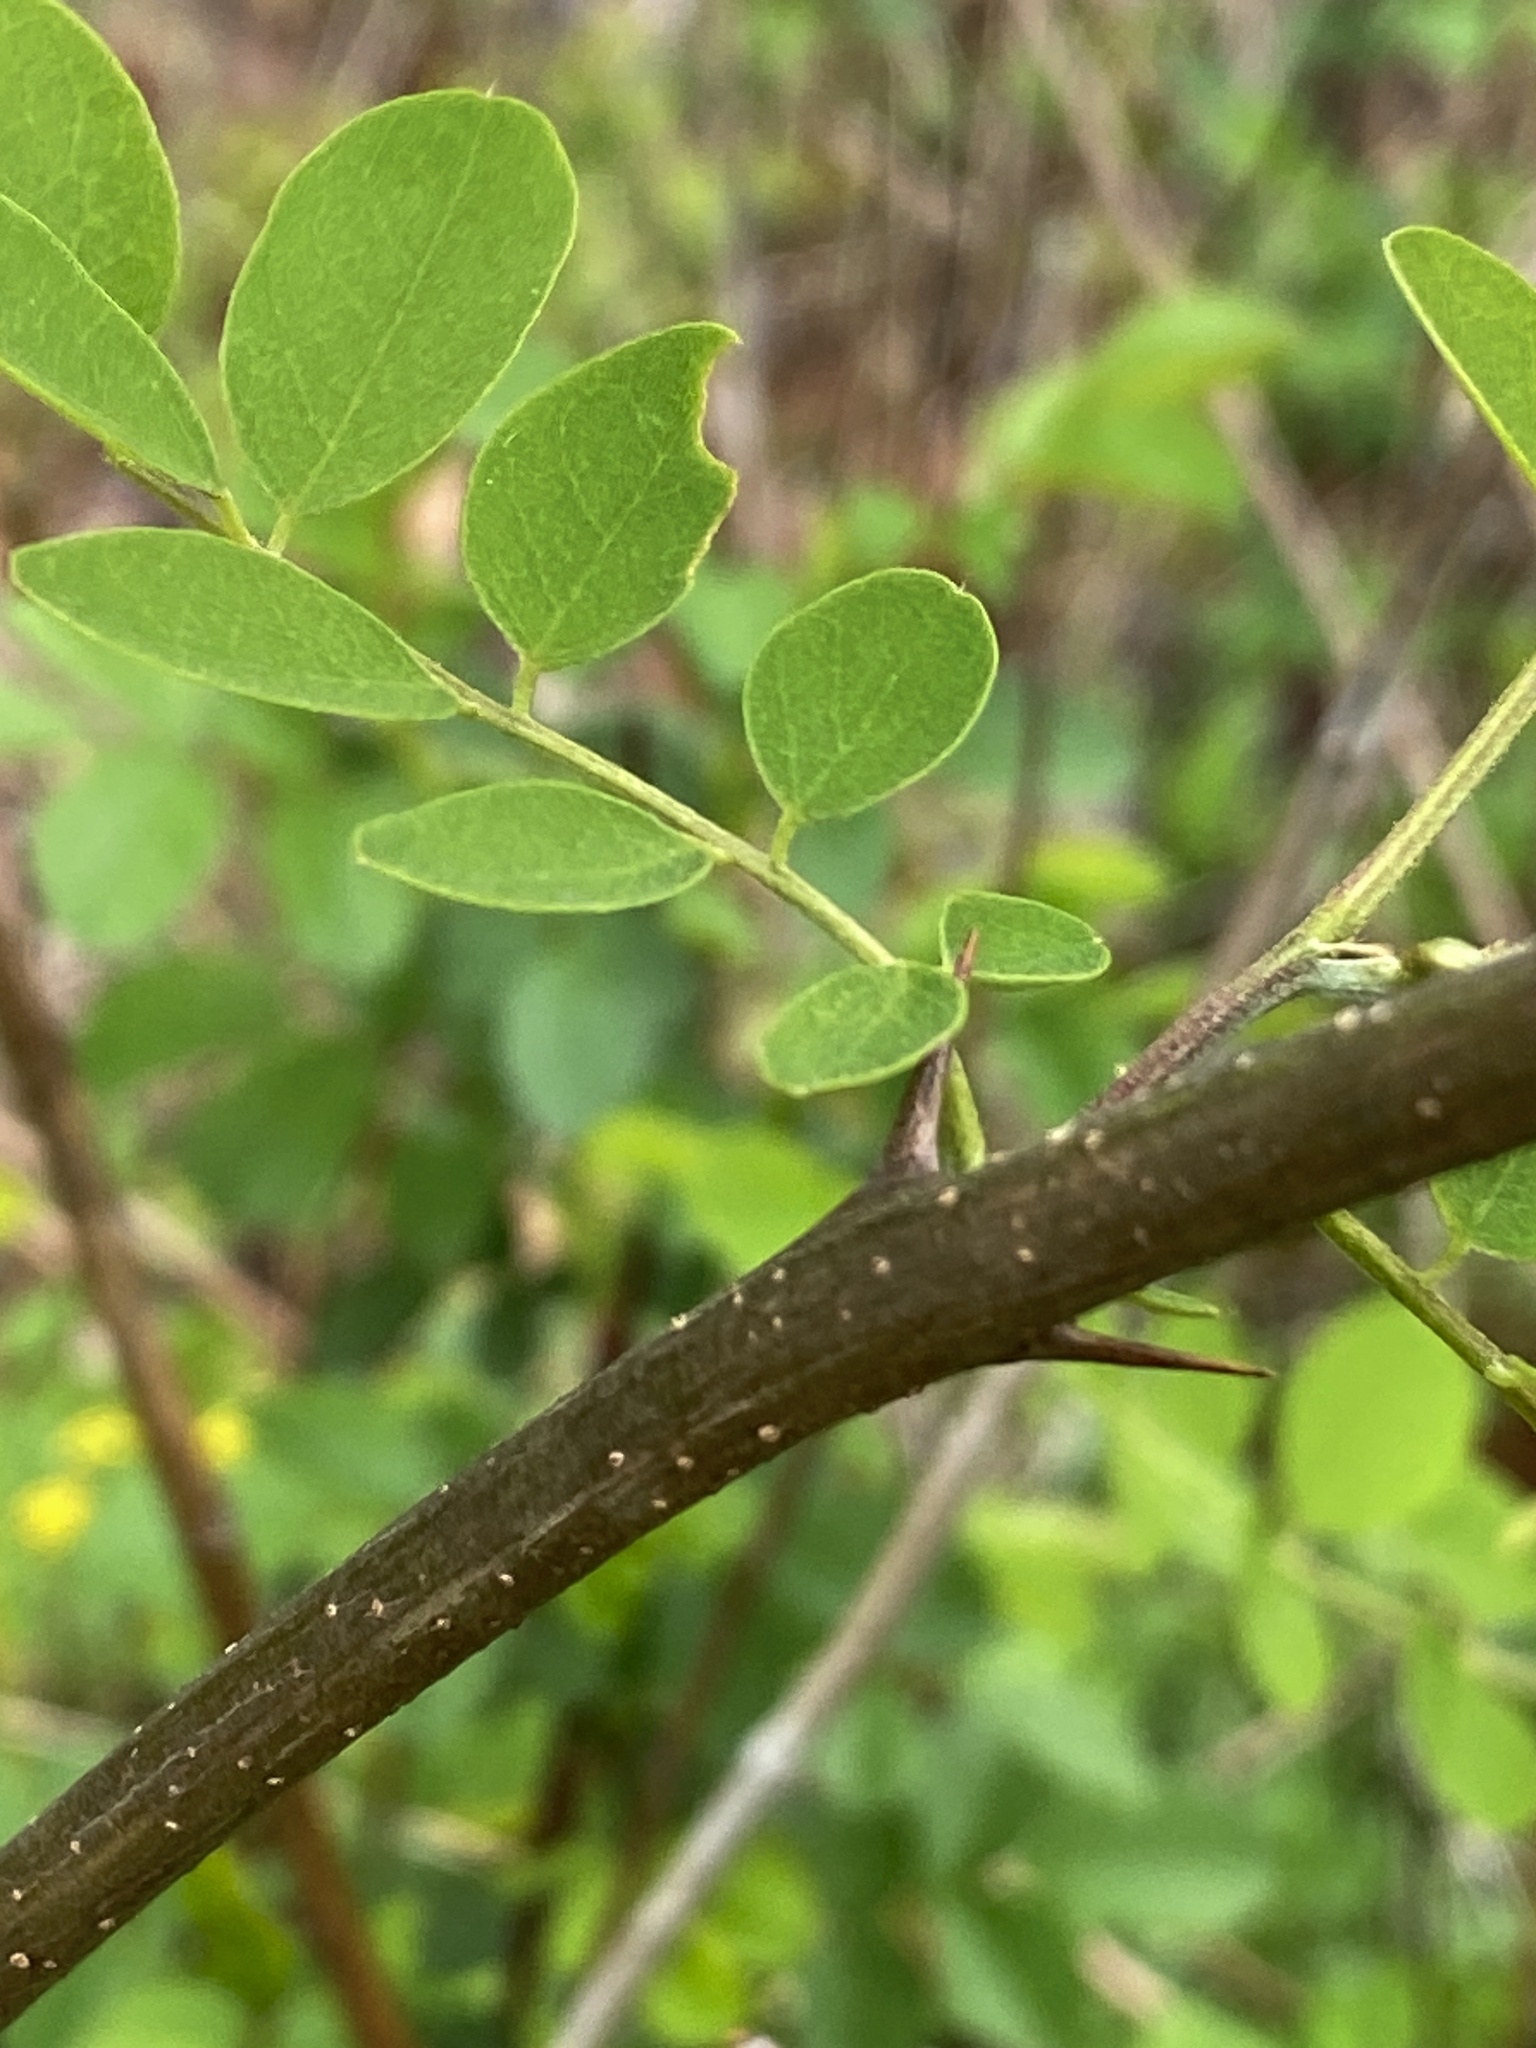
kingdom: Plantae
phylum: Tracheophyta
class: Magnoliopsida
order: Fabales
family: Fabaceae
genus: Robinia
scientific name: Robinia pseudoacacia
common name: Black locust
